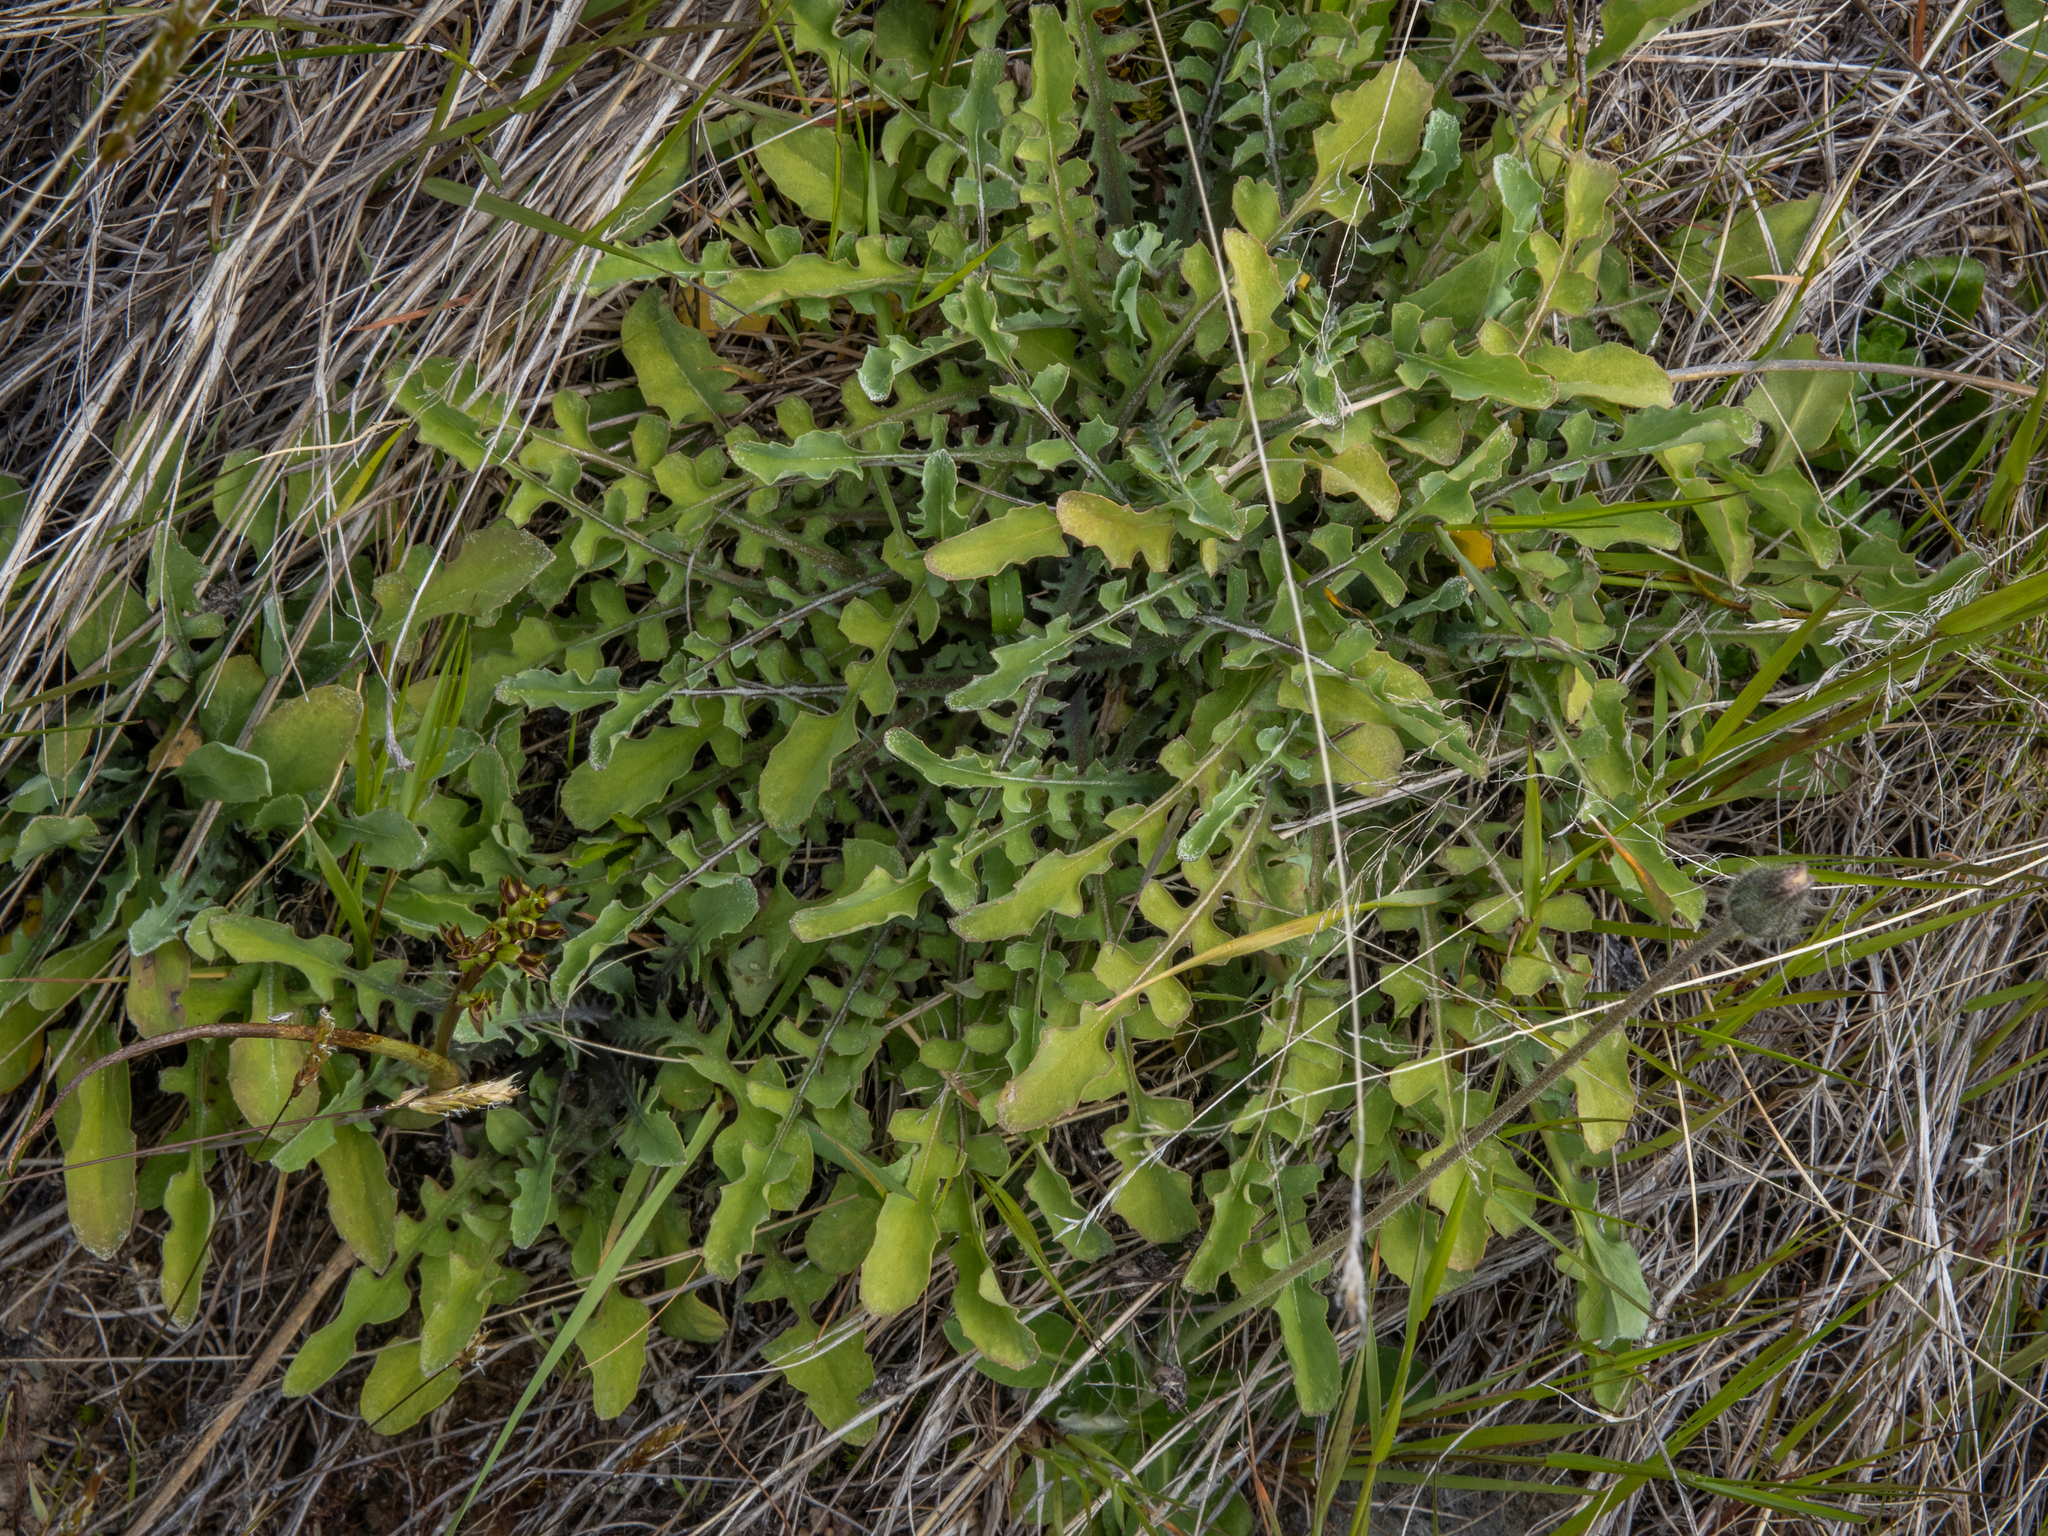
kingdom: Plantae
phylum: Tracheophyta
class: Magnoliopsida
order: Asterales
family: Asteraceae
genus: Sonchus
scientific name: Sonchus novae-zelandiae
